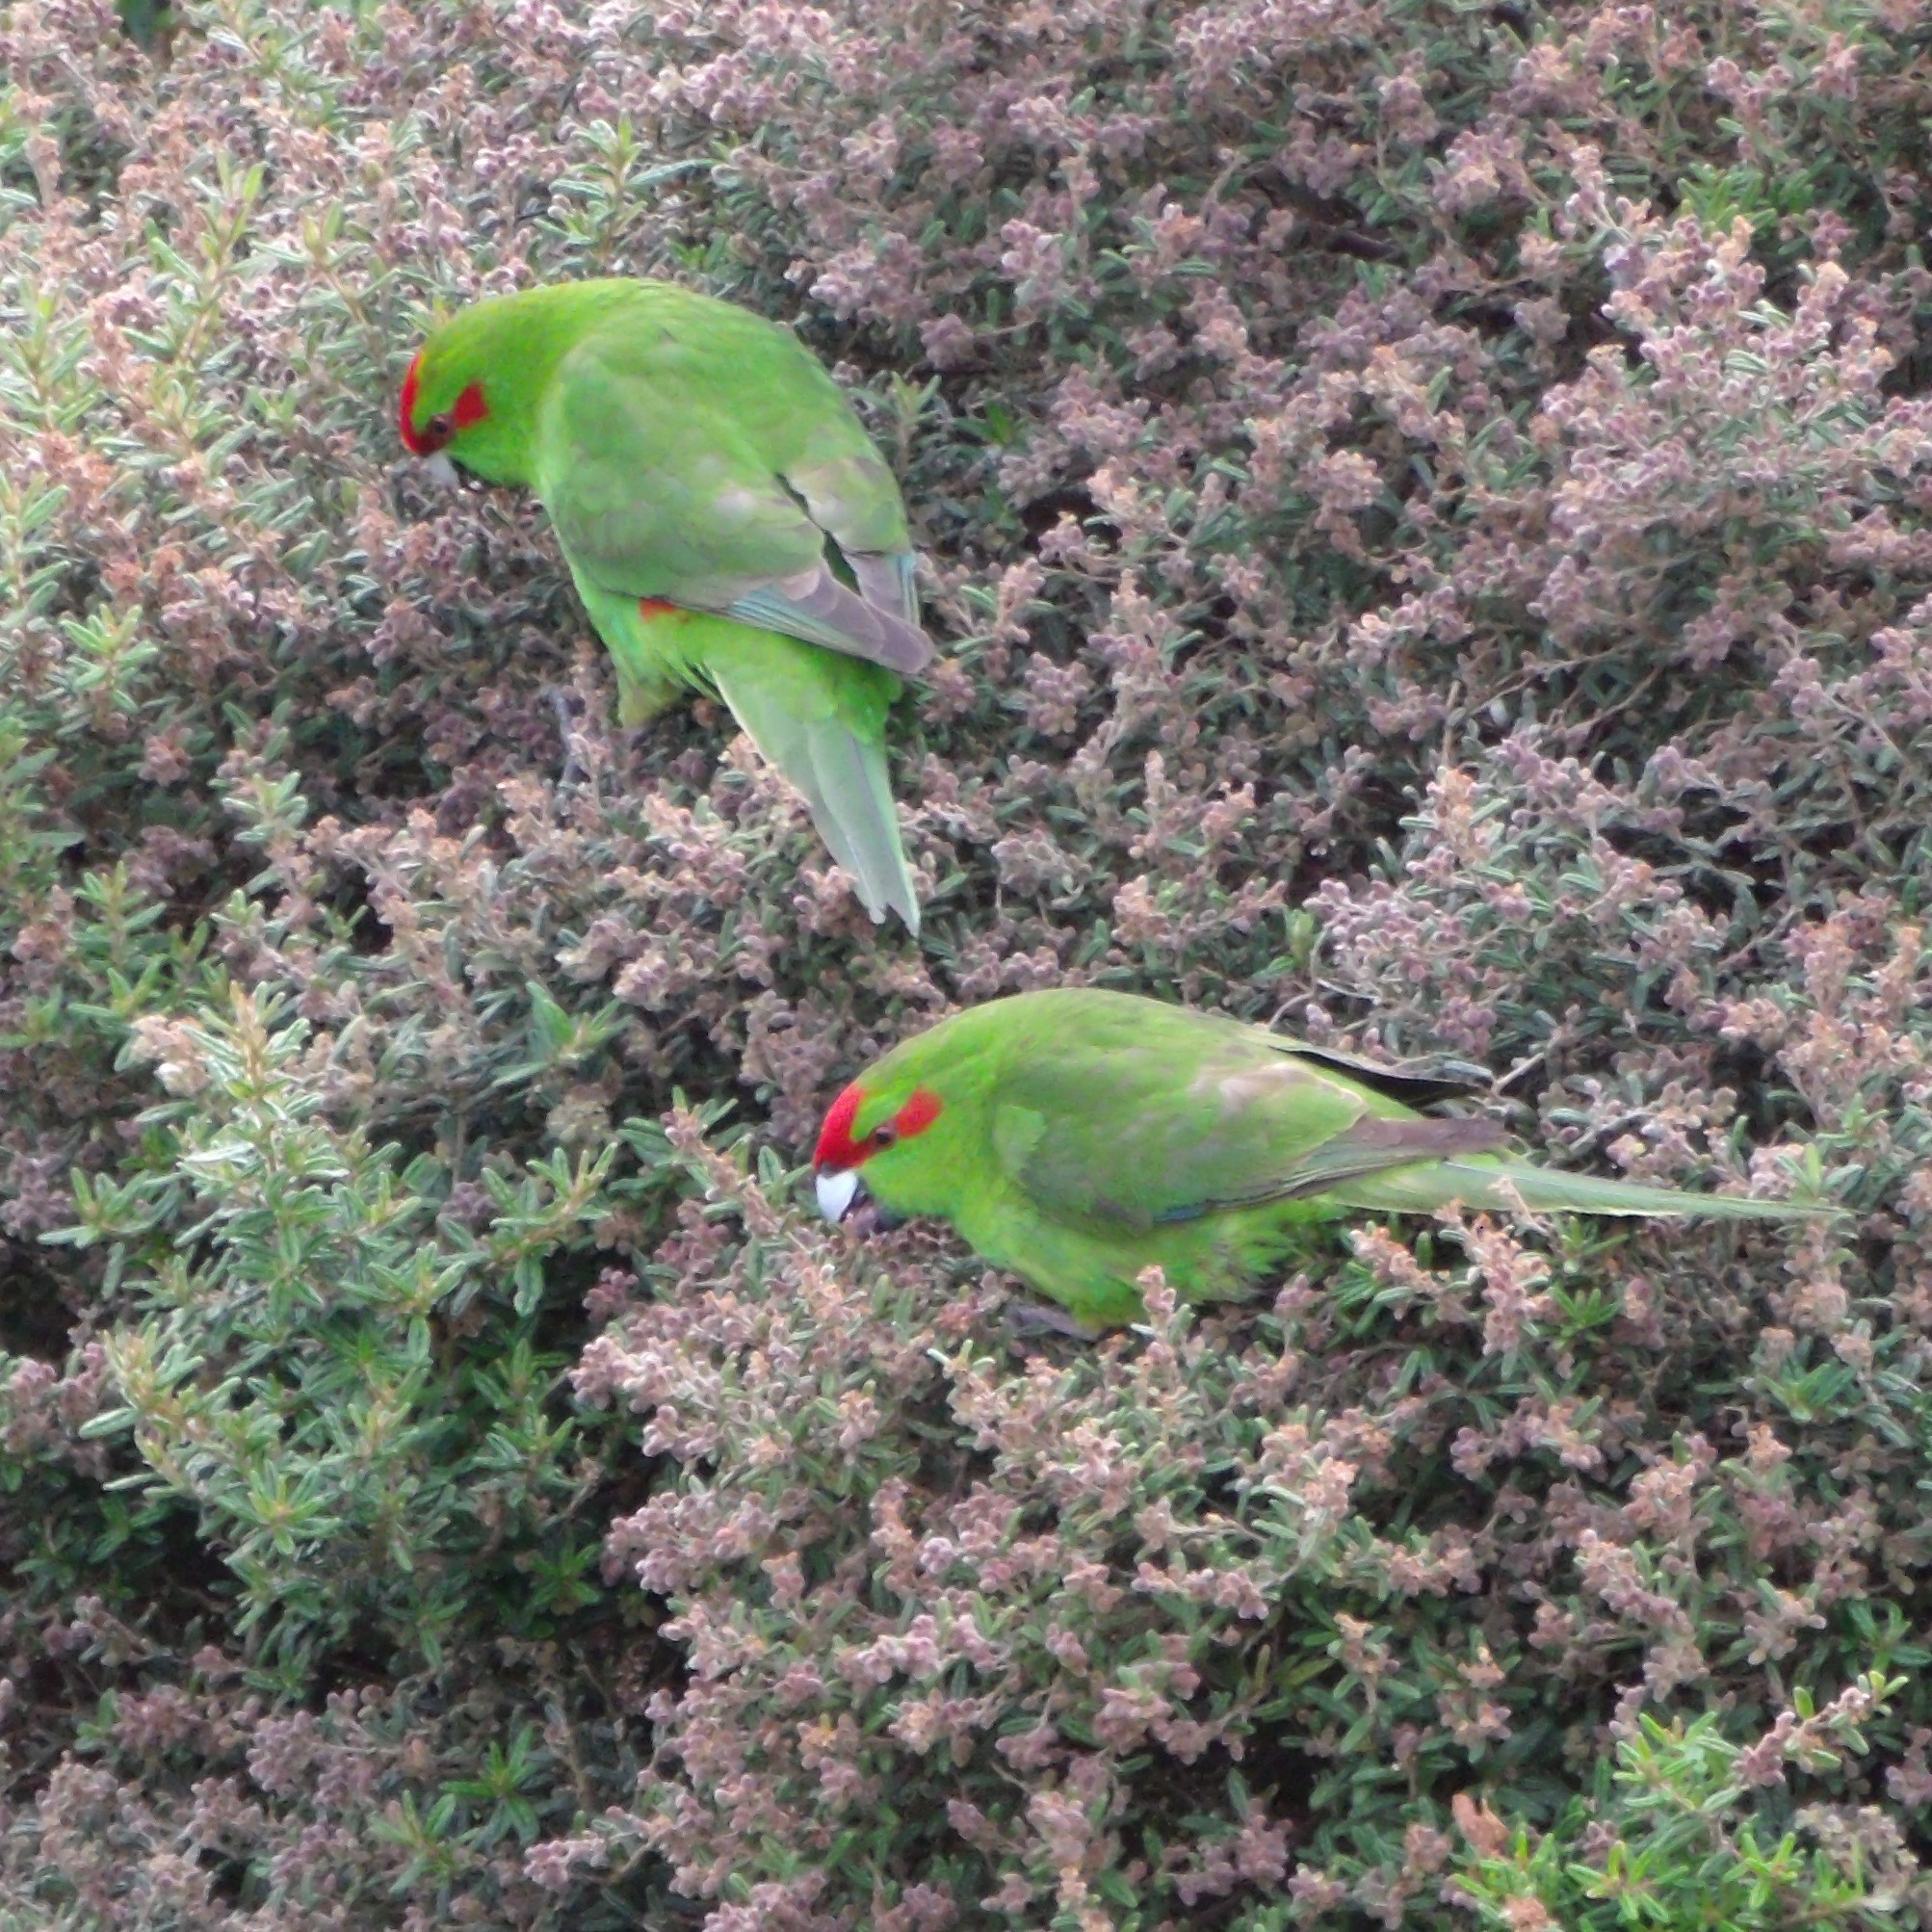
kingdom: Animalia
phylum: Chordata
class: Aves
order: Psittaciformes
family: Psittacidae
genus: Cyanoramphus
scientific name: Cyanoramphus novaezelandiae
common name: Red-fronted parakeet
